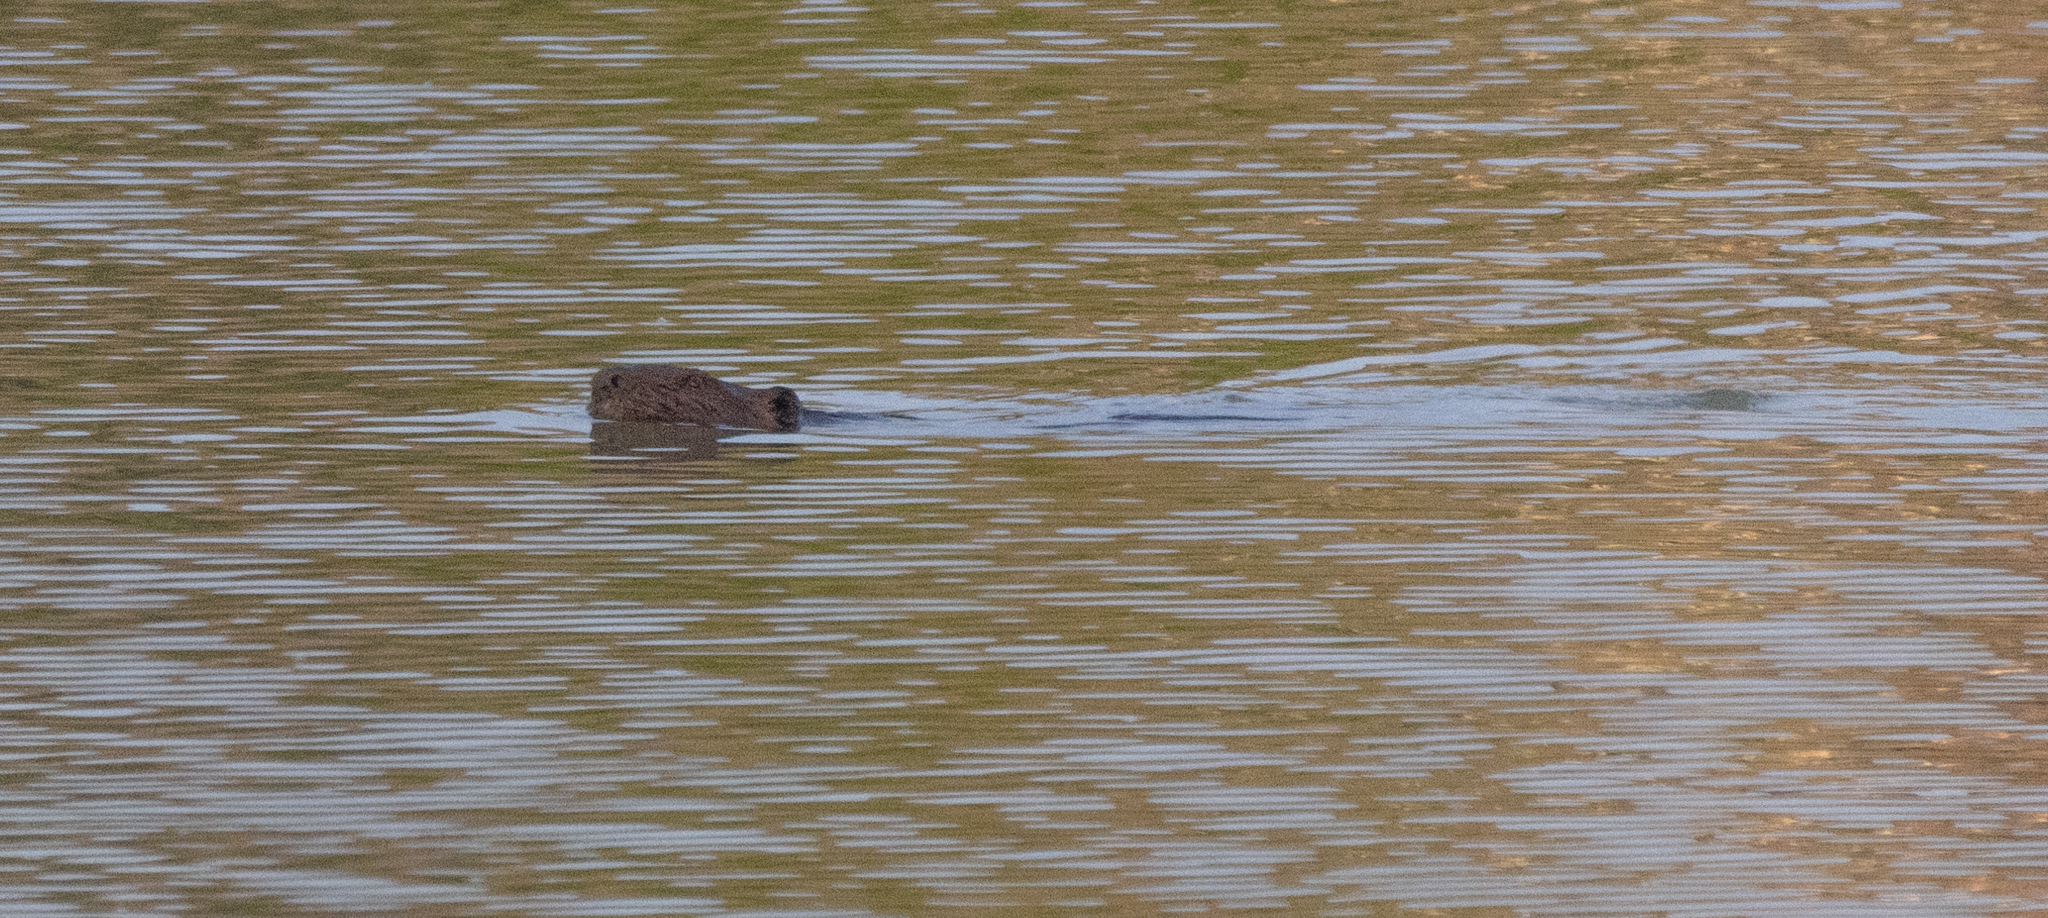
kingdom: Animalia
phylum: Chordata
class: Mammalia
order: Rodentia
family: Castoridae
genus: Castor
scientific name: Castor canadensis
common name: American beaver
